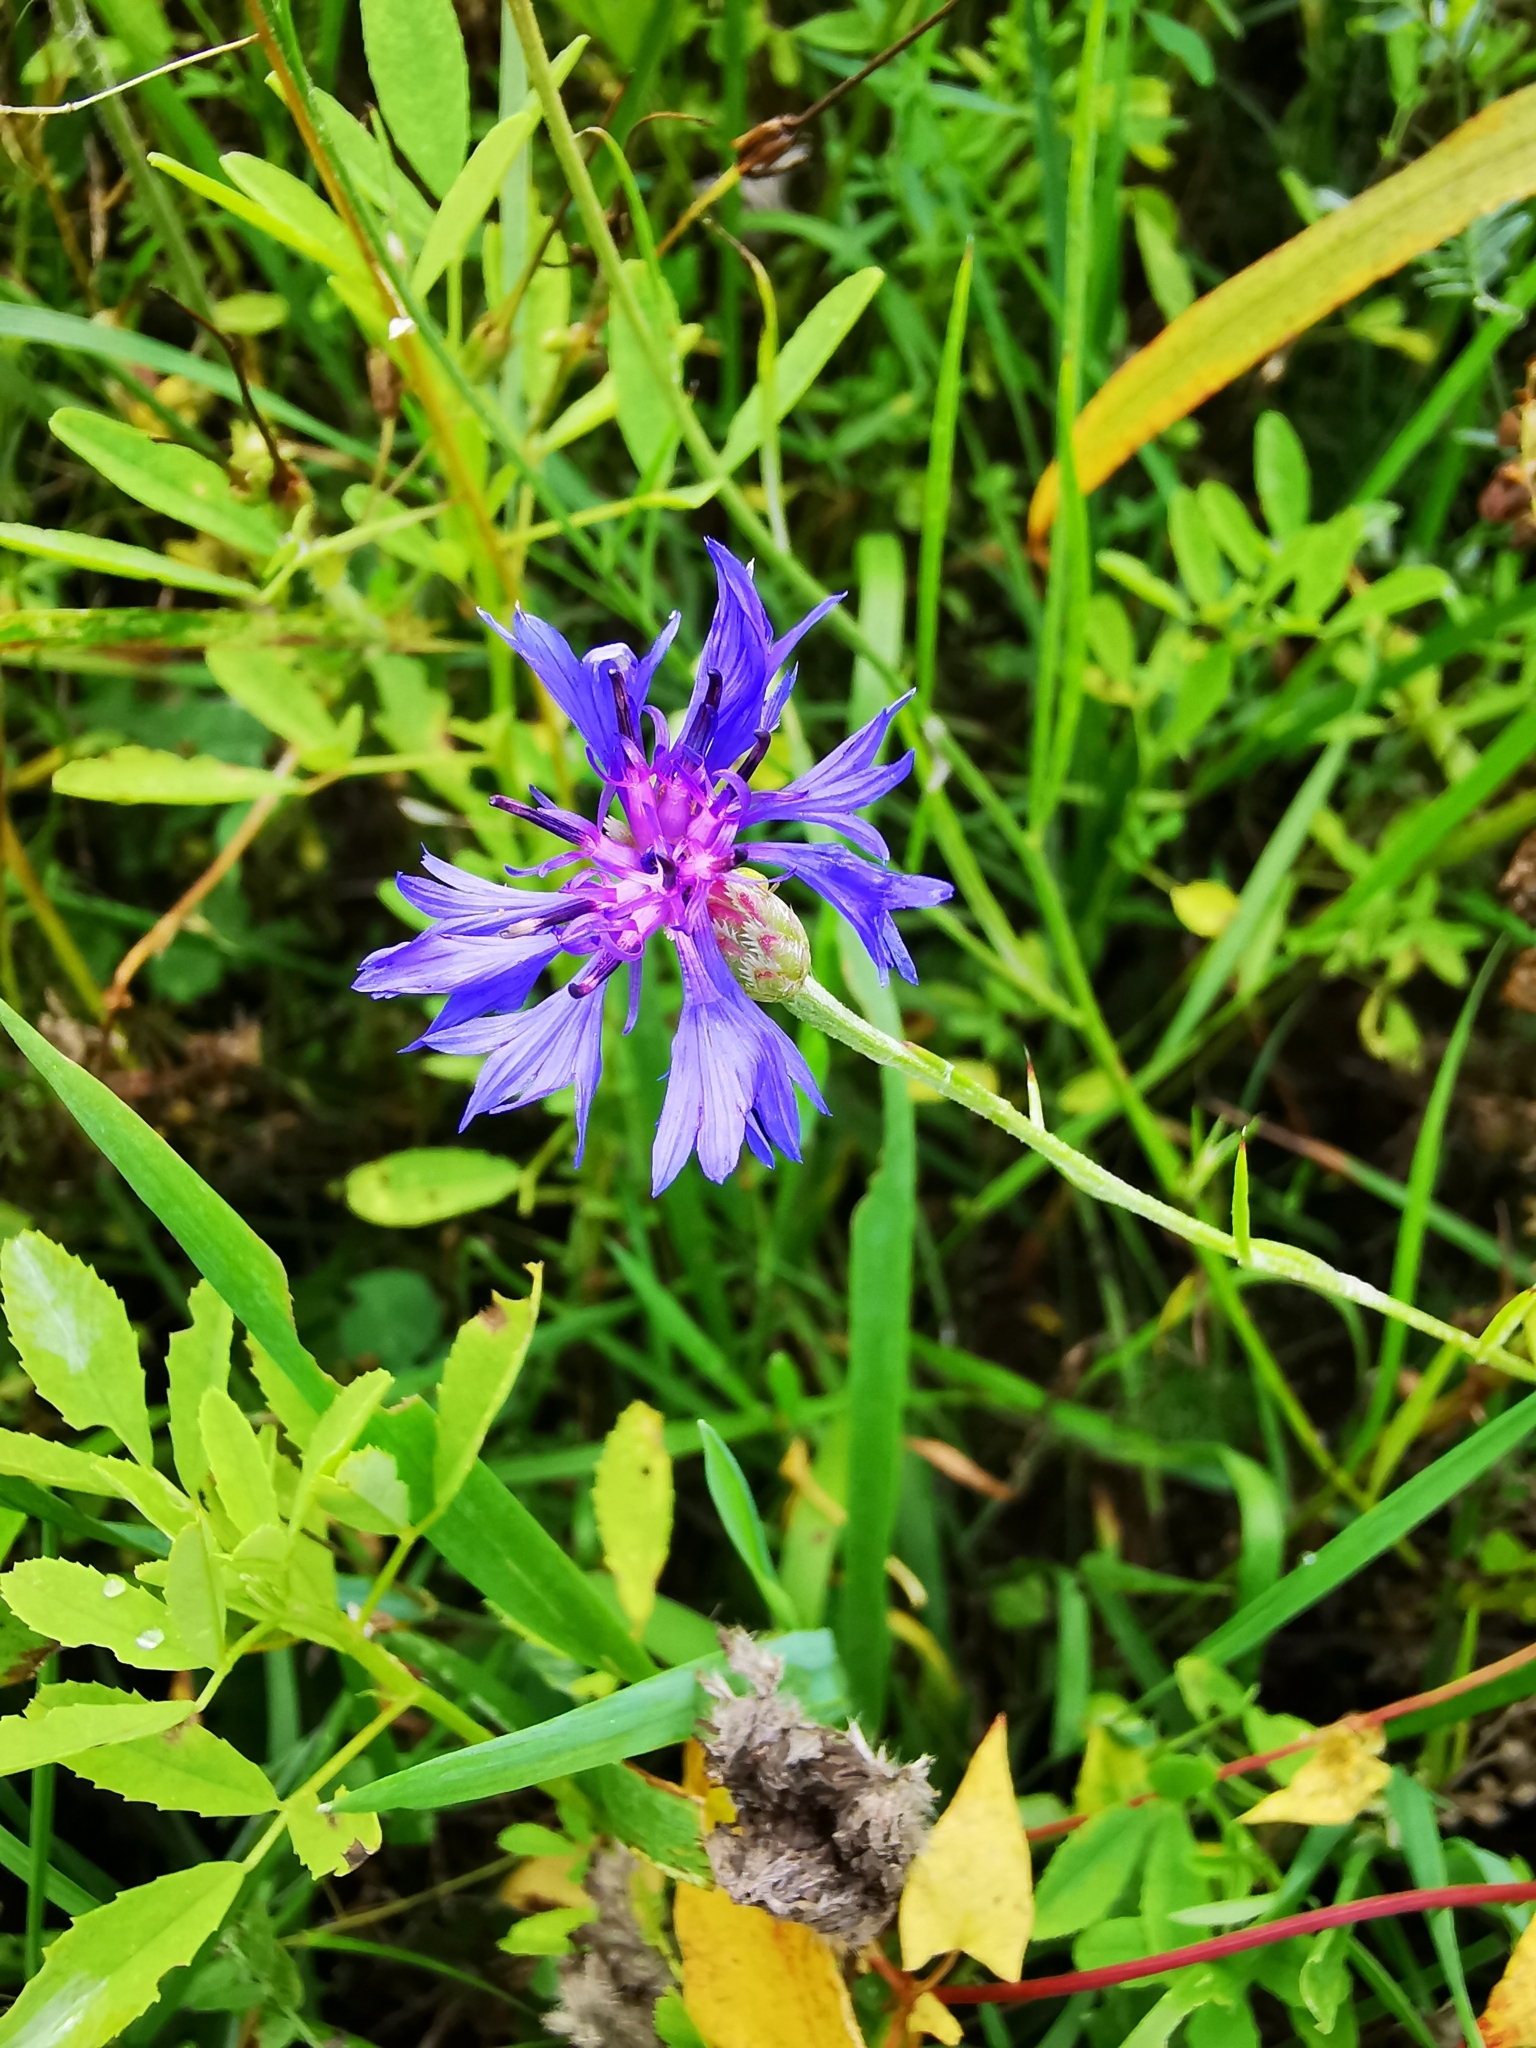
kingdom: Plantae
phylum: Tracheophyta
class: Magnoliopsida
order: Asterales
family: Asteraceae
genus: Centaurea
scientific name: Centaurea cyanus
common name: Cornflower
